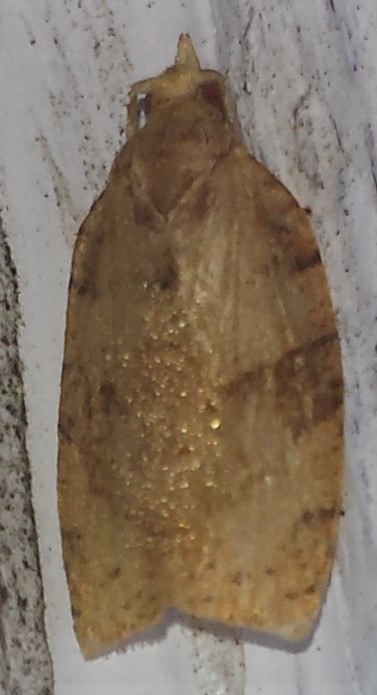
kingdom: Animalia
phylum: Arthropoda
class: Insecta
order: Lepidoptera
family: Tortricidae
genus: Pandemis
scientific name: Pandemis lamprosana
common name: Woodgrain leafroller moth
